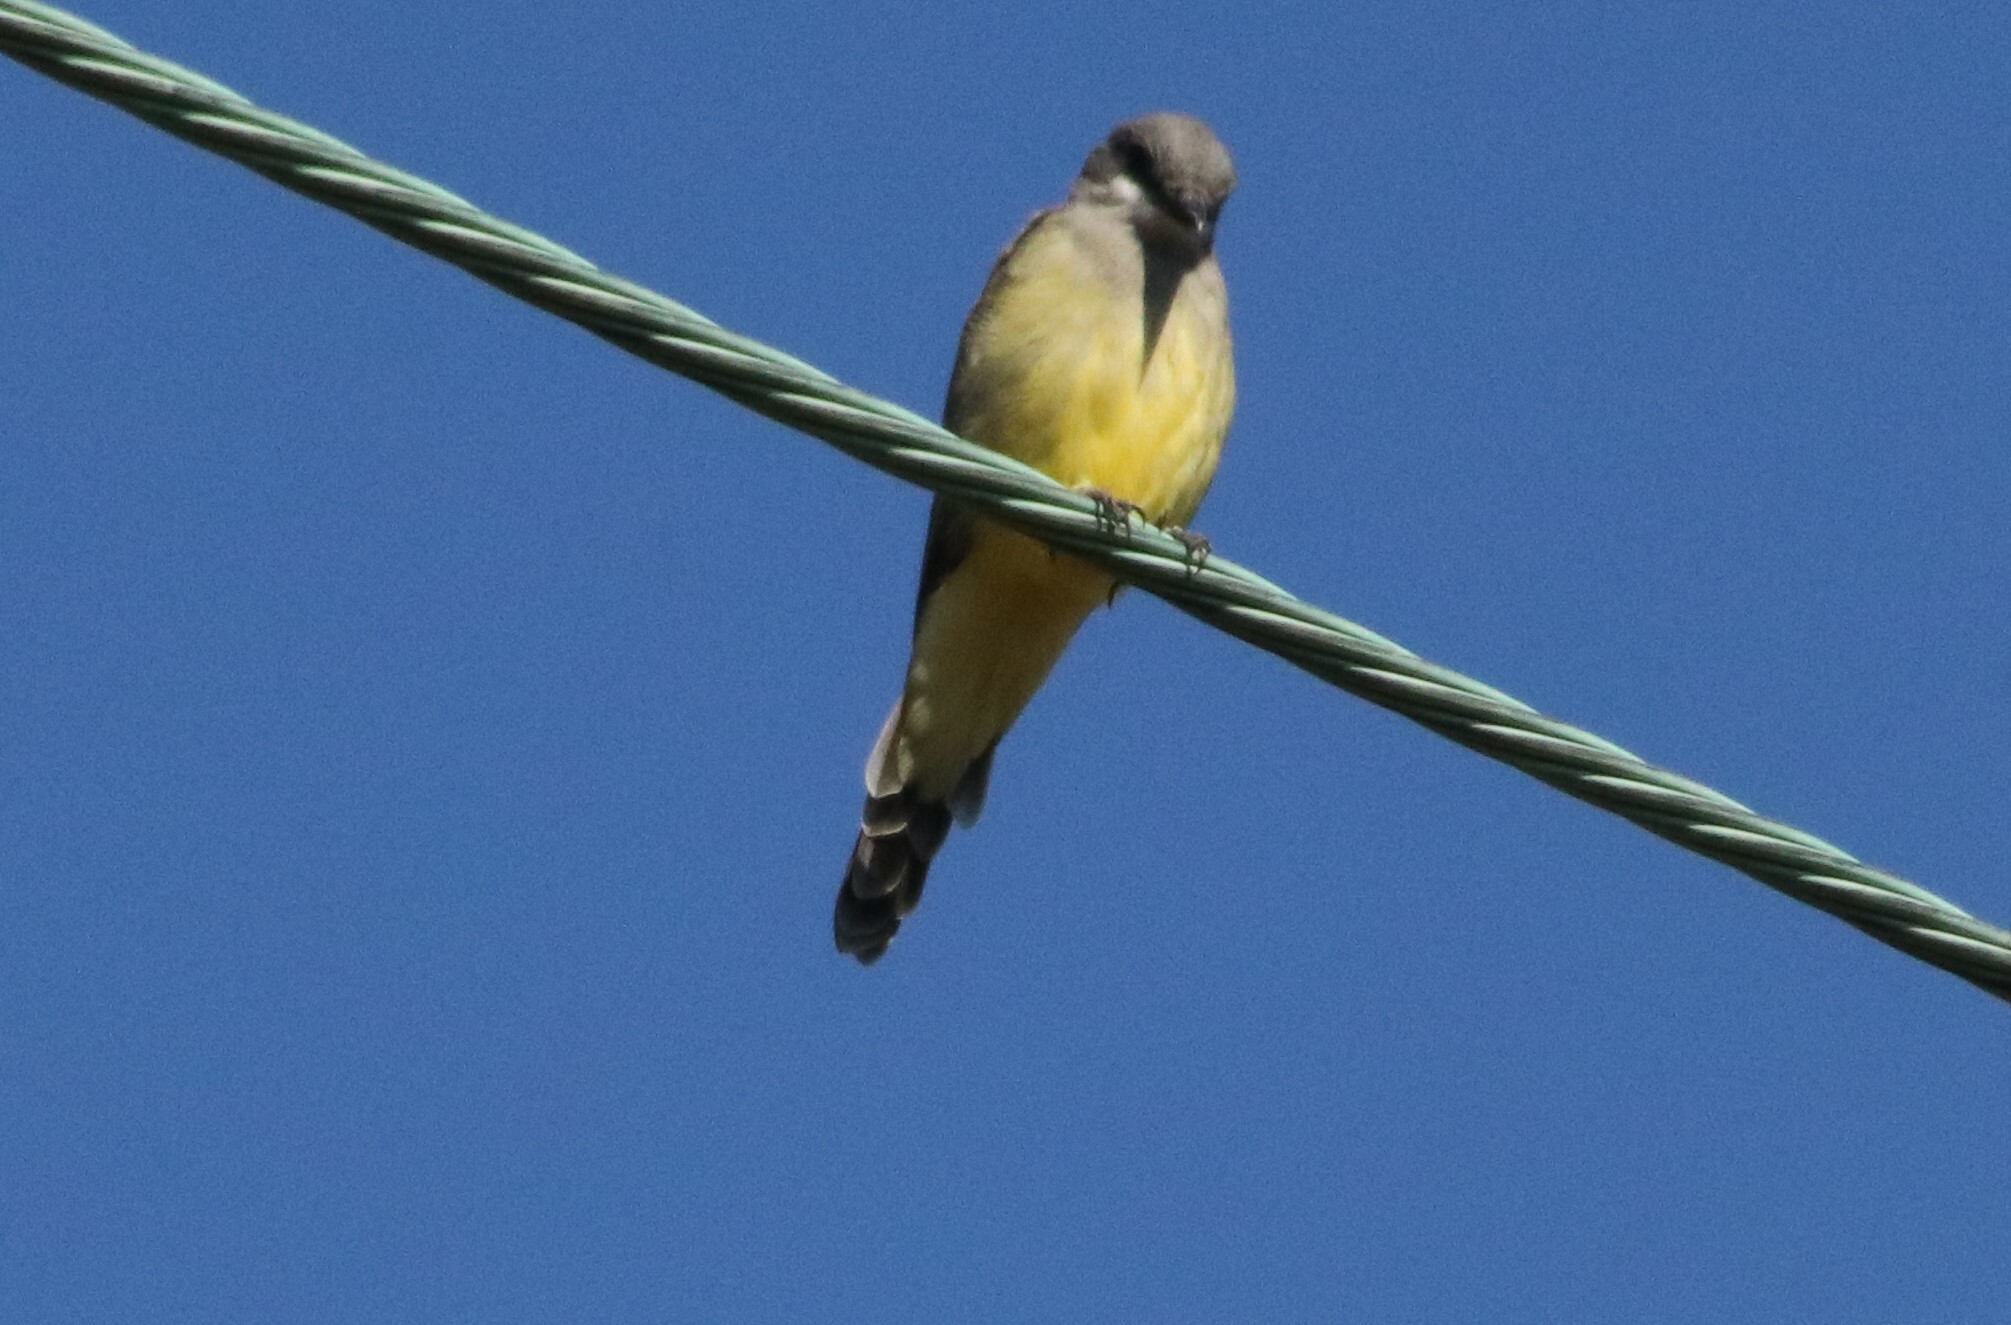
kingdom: Animalia
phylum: Chordata
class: Aves
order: Passeriformes
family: Tyrannidae
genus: Tyrannus
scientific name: Tyrannus vociferans
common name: Cassin's kingbird
